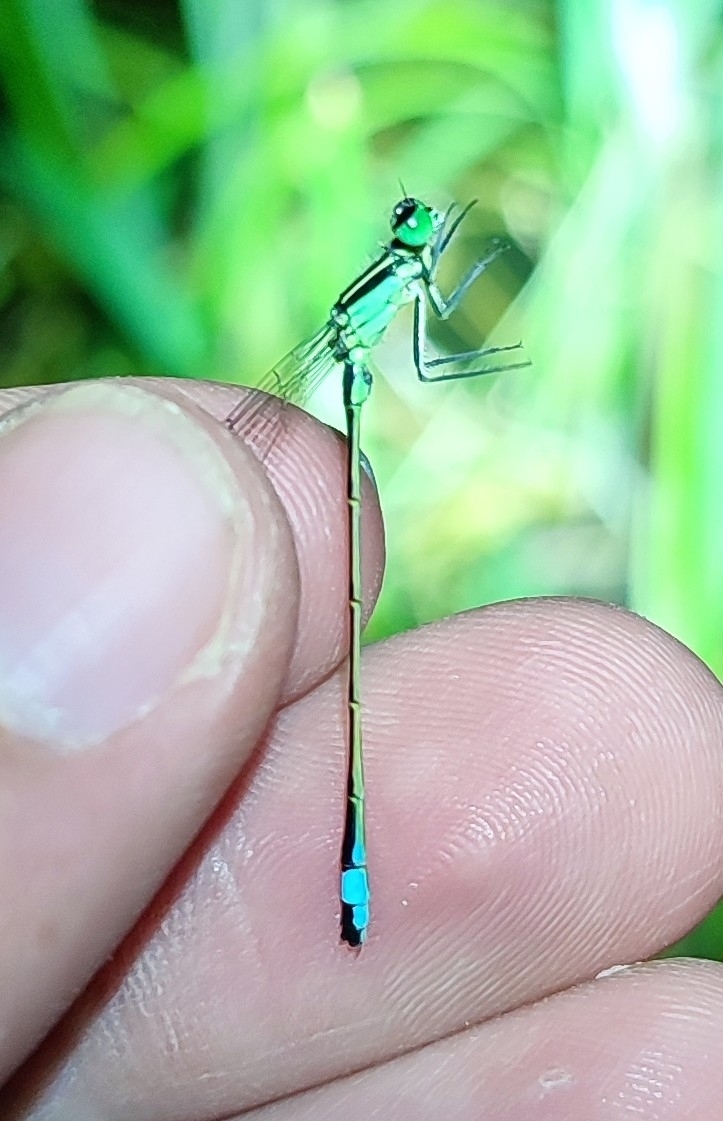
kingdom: Animalia
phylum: Arthropoda
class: Insecta
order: Odonata
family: Coenagrionidae
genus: Ischnura
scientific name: Ischnura elegans
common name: Blue-tailed damselfly
